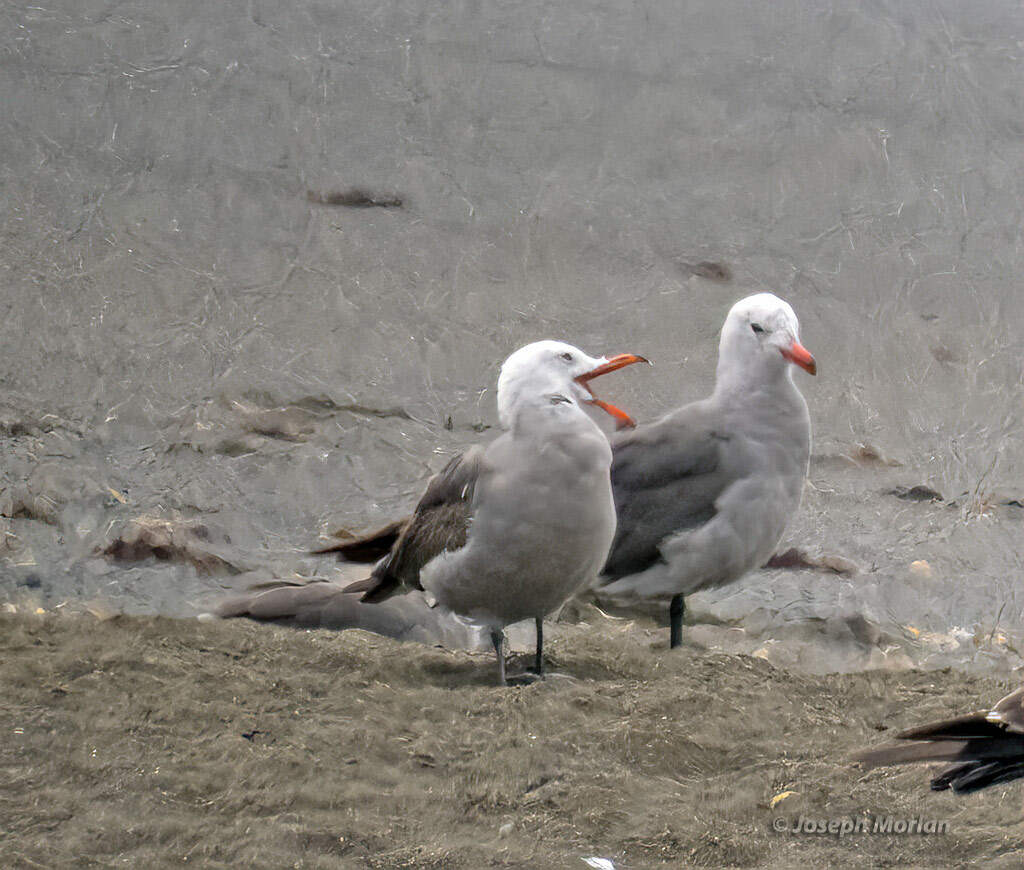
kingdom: Animalia
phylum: Chordata
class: Aves
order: Charadriiformes
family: Laridae
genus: Larus
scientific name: Larus heermanni
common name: Heermann's gull
